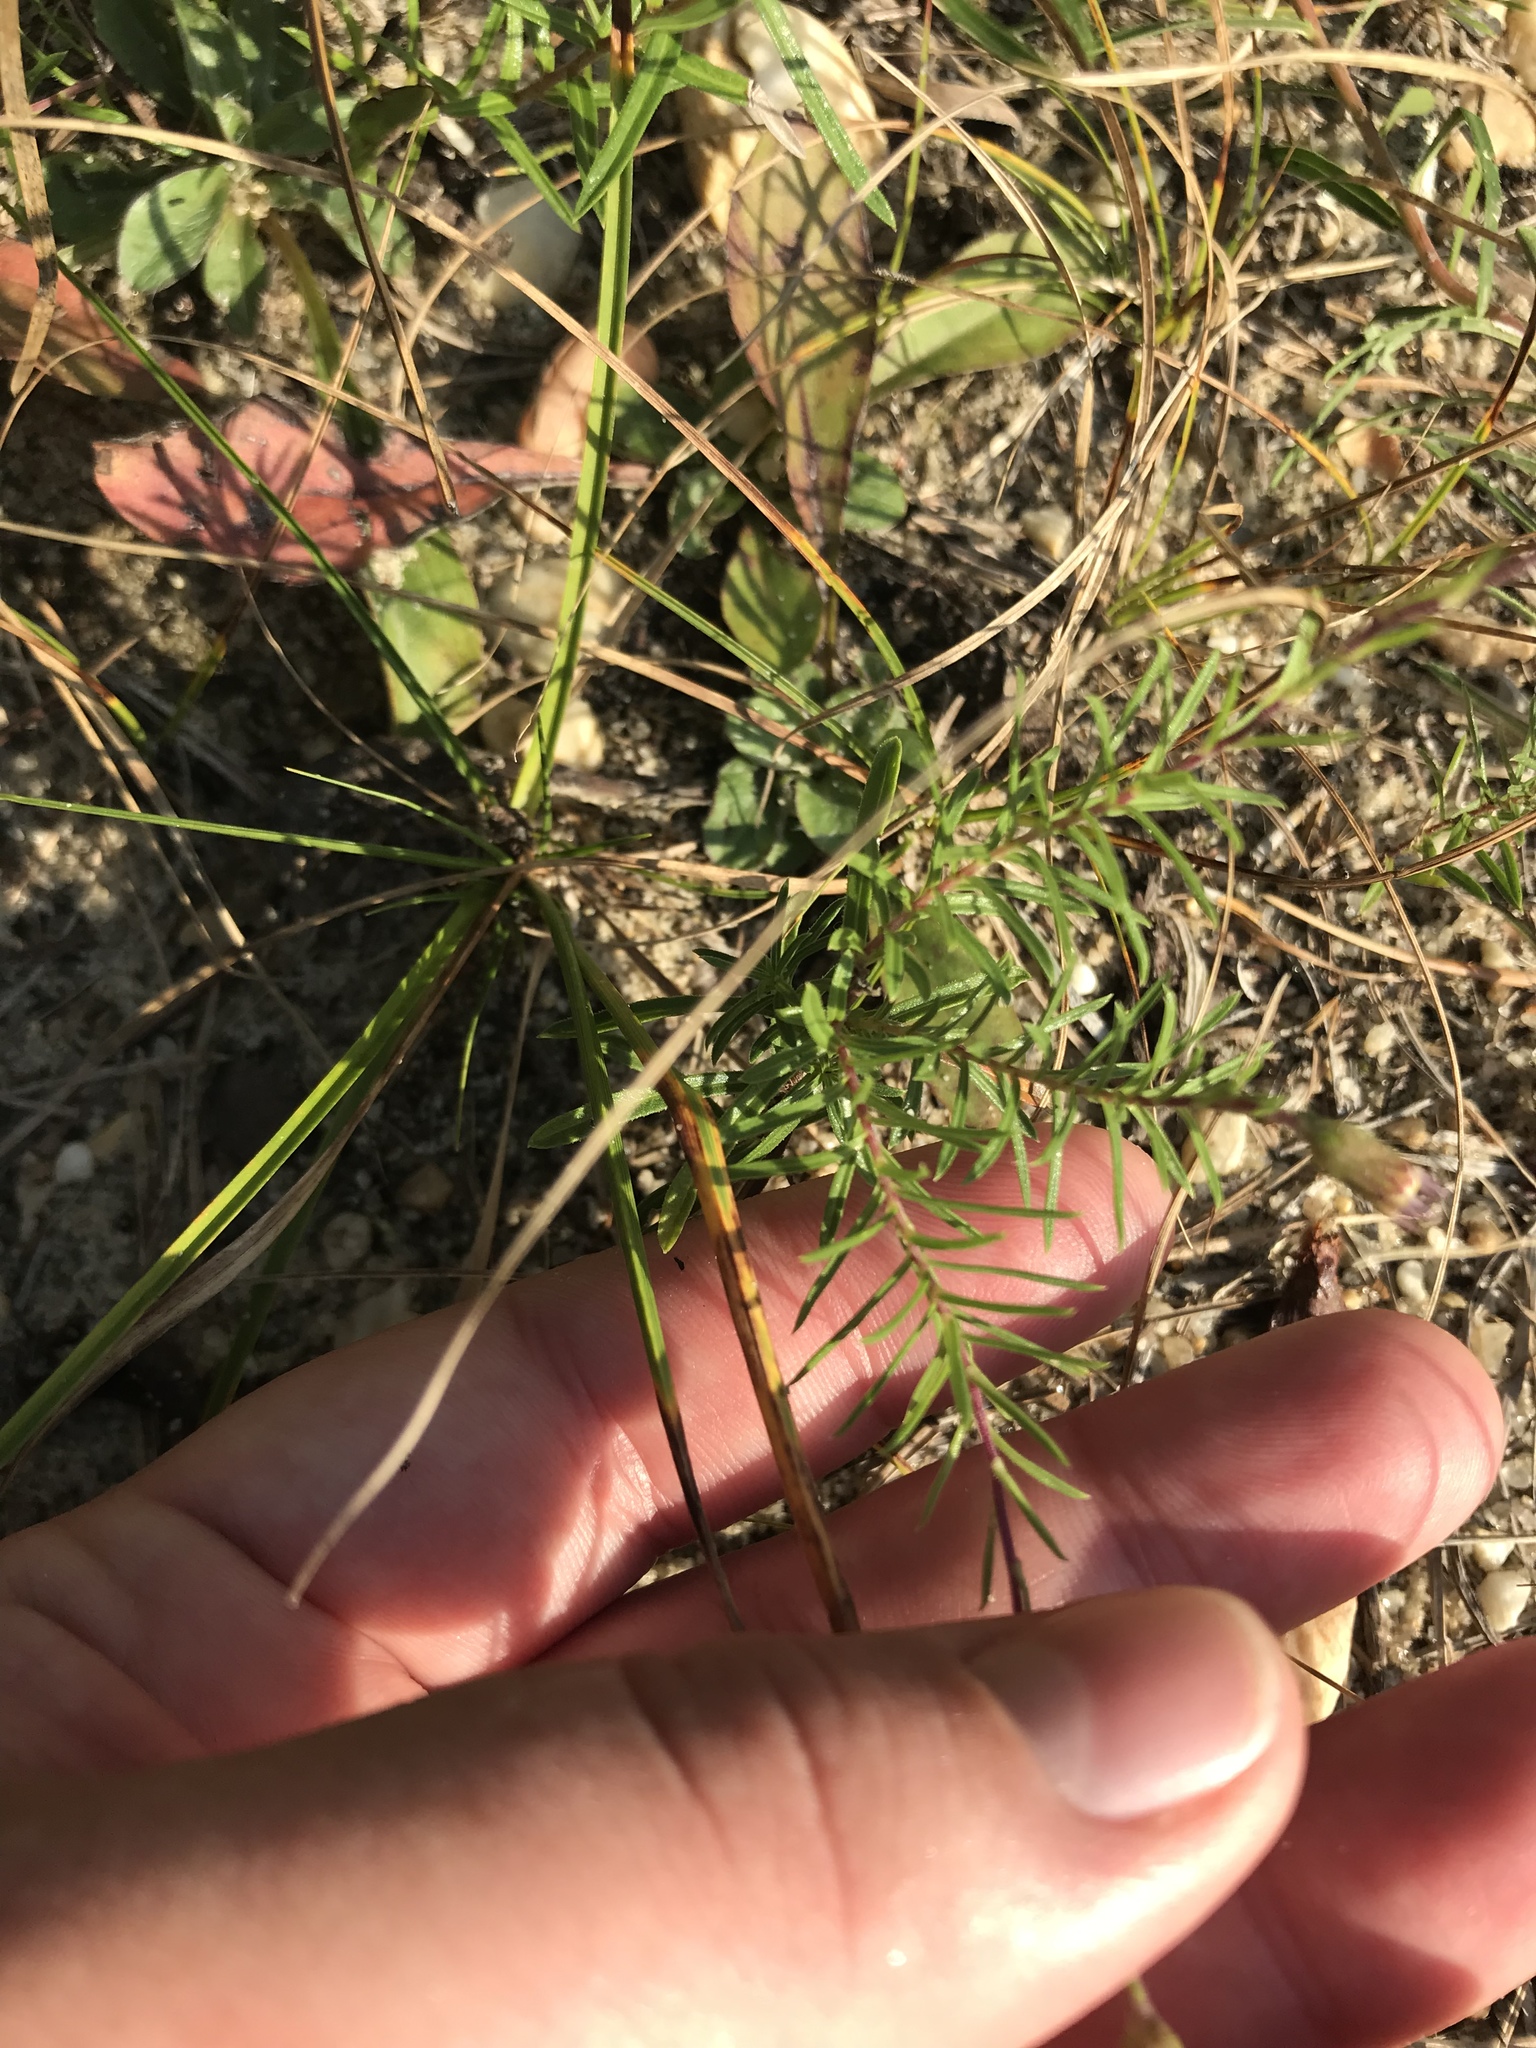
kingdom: Plantae
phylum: Tracheophyta
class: Magnoliopsida
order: Asterales
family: Asteraceae
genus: Ionactis
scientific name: Ionactis linariifolia
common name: Flax-leaf aster
